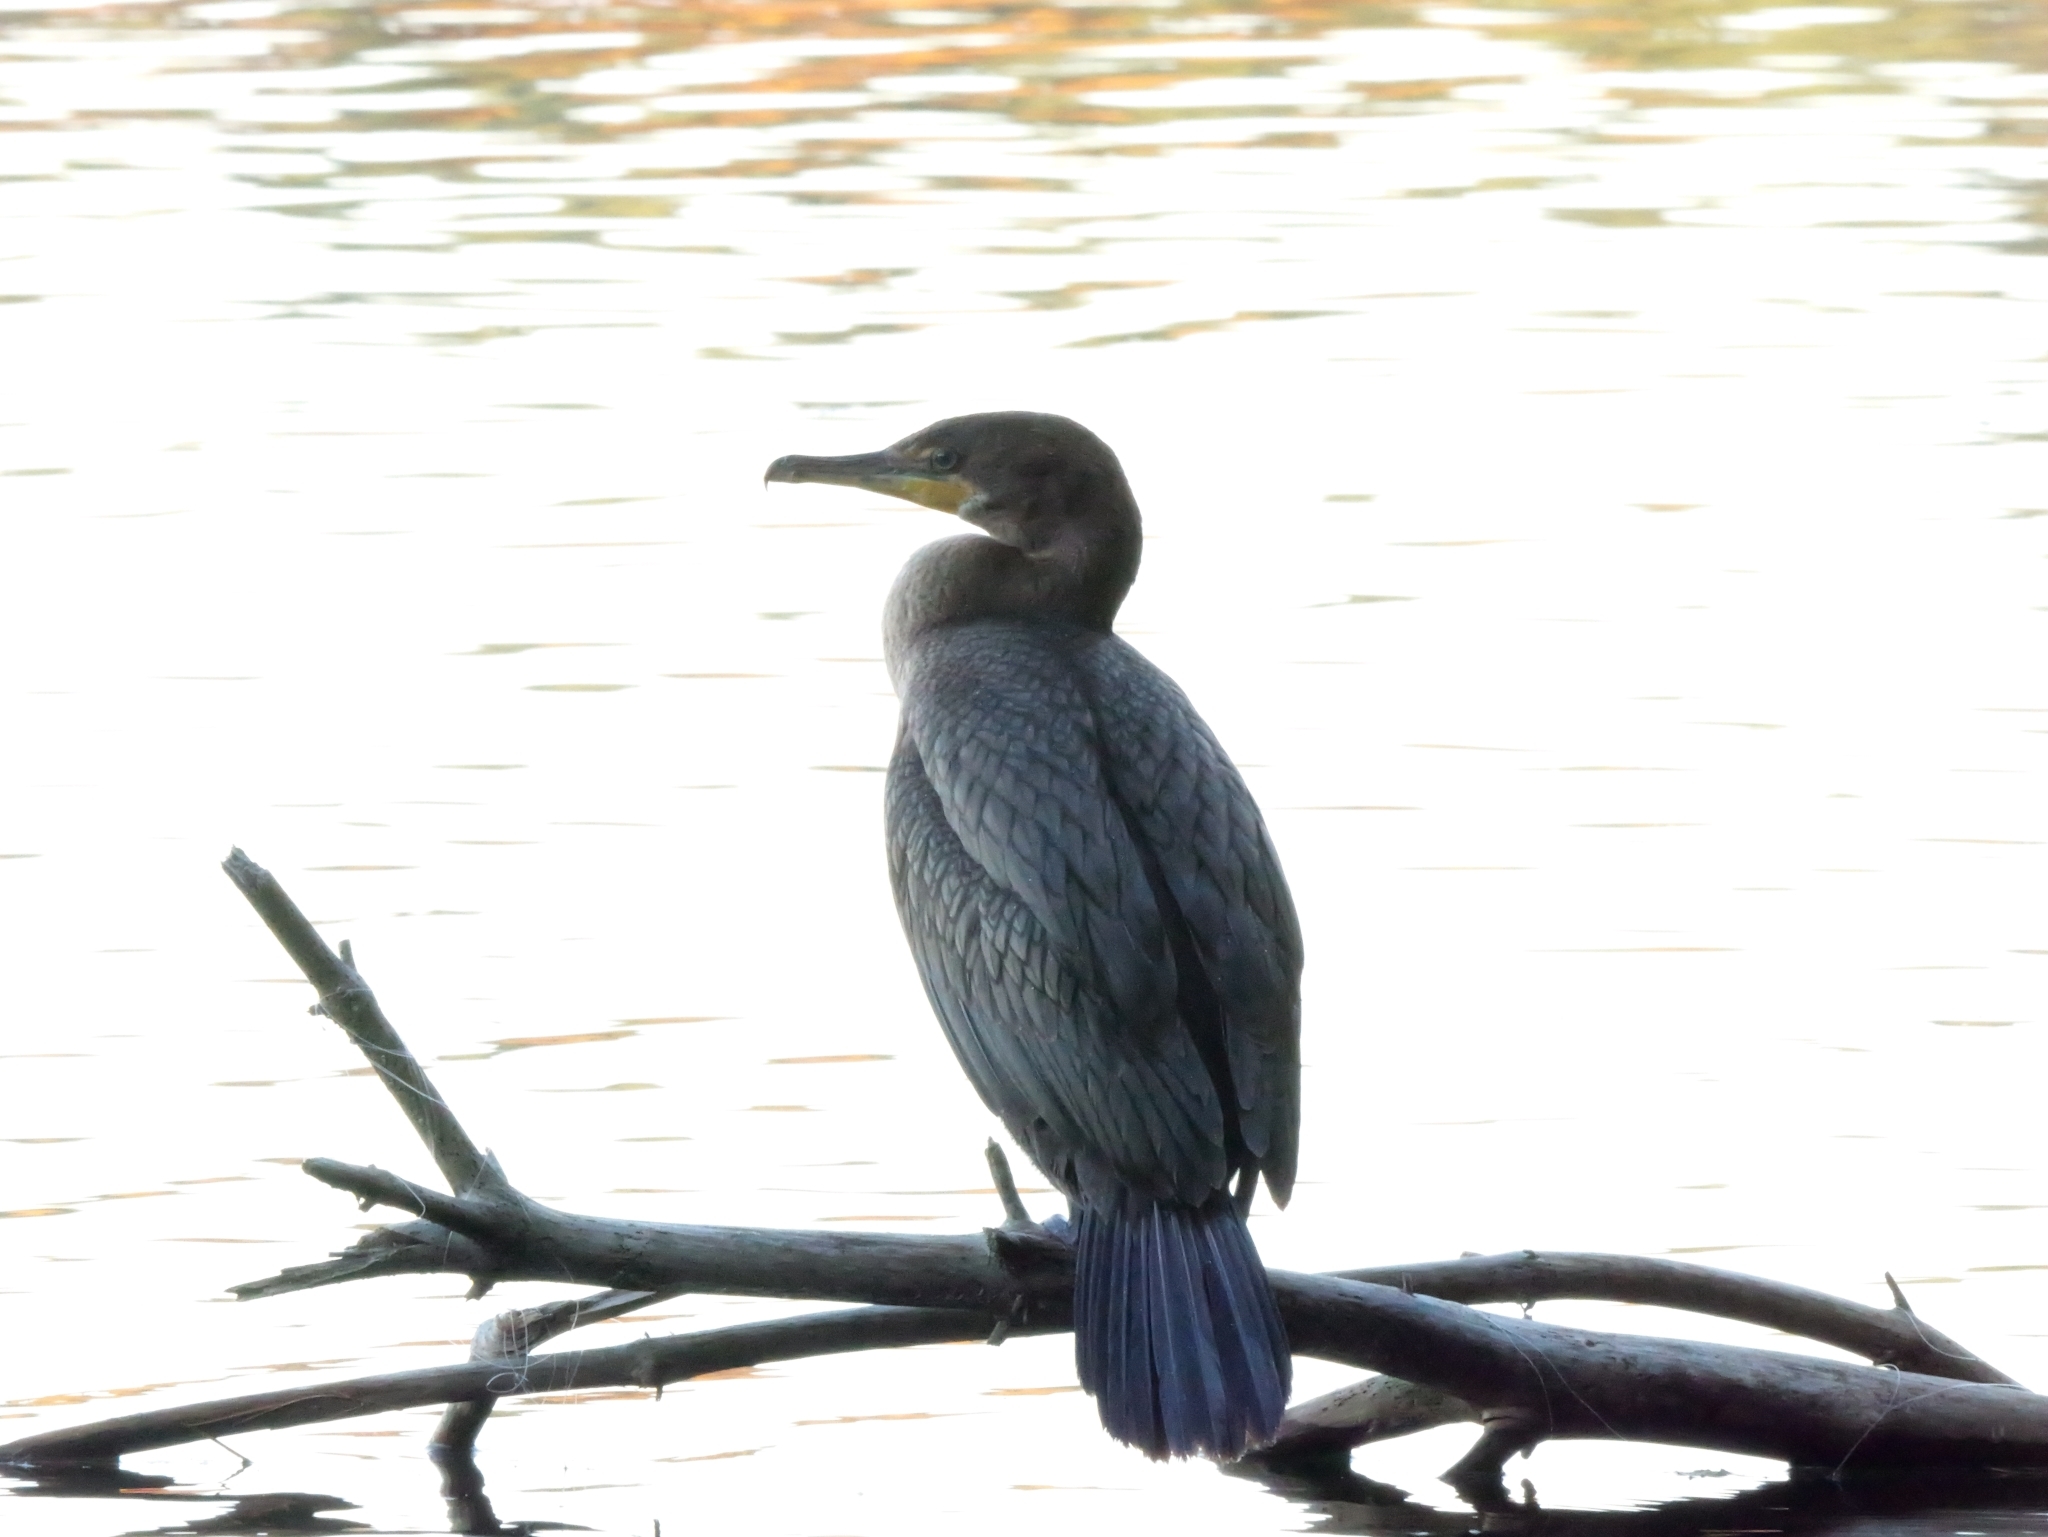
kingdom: Animalia
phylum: Chordata
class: Aves
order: Suliformes
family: Phalacrocoracidae
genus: Phalacrocorax
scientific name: Phalacrocorax auritus
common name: Double-crested cormorant
